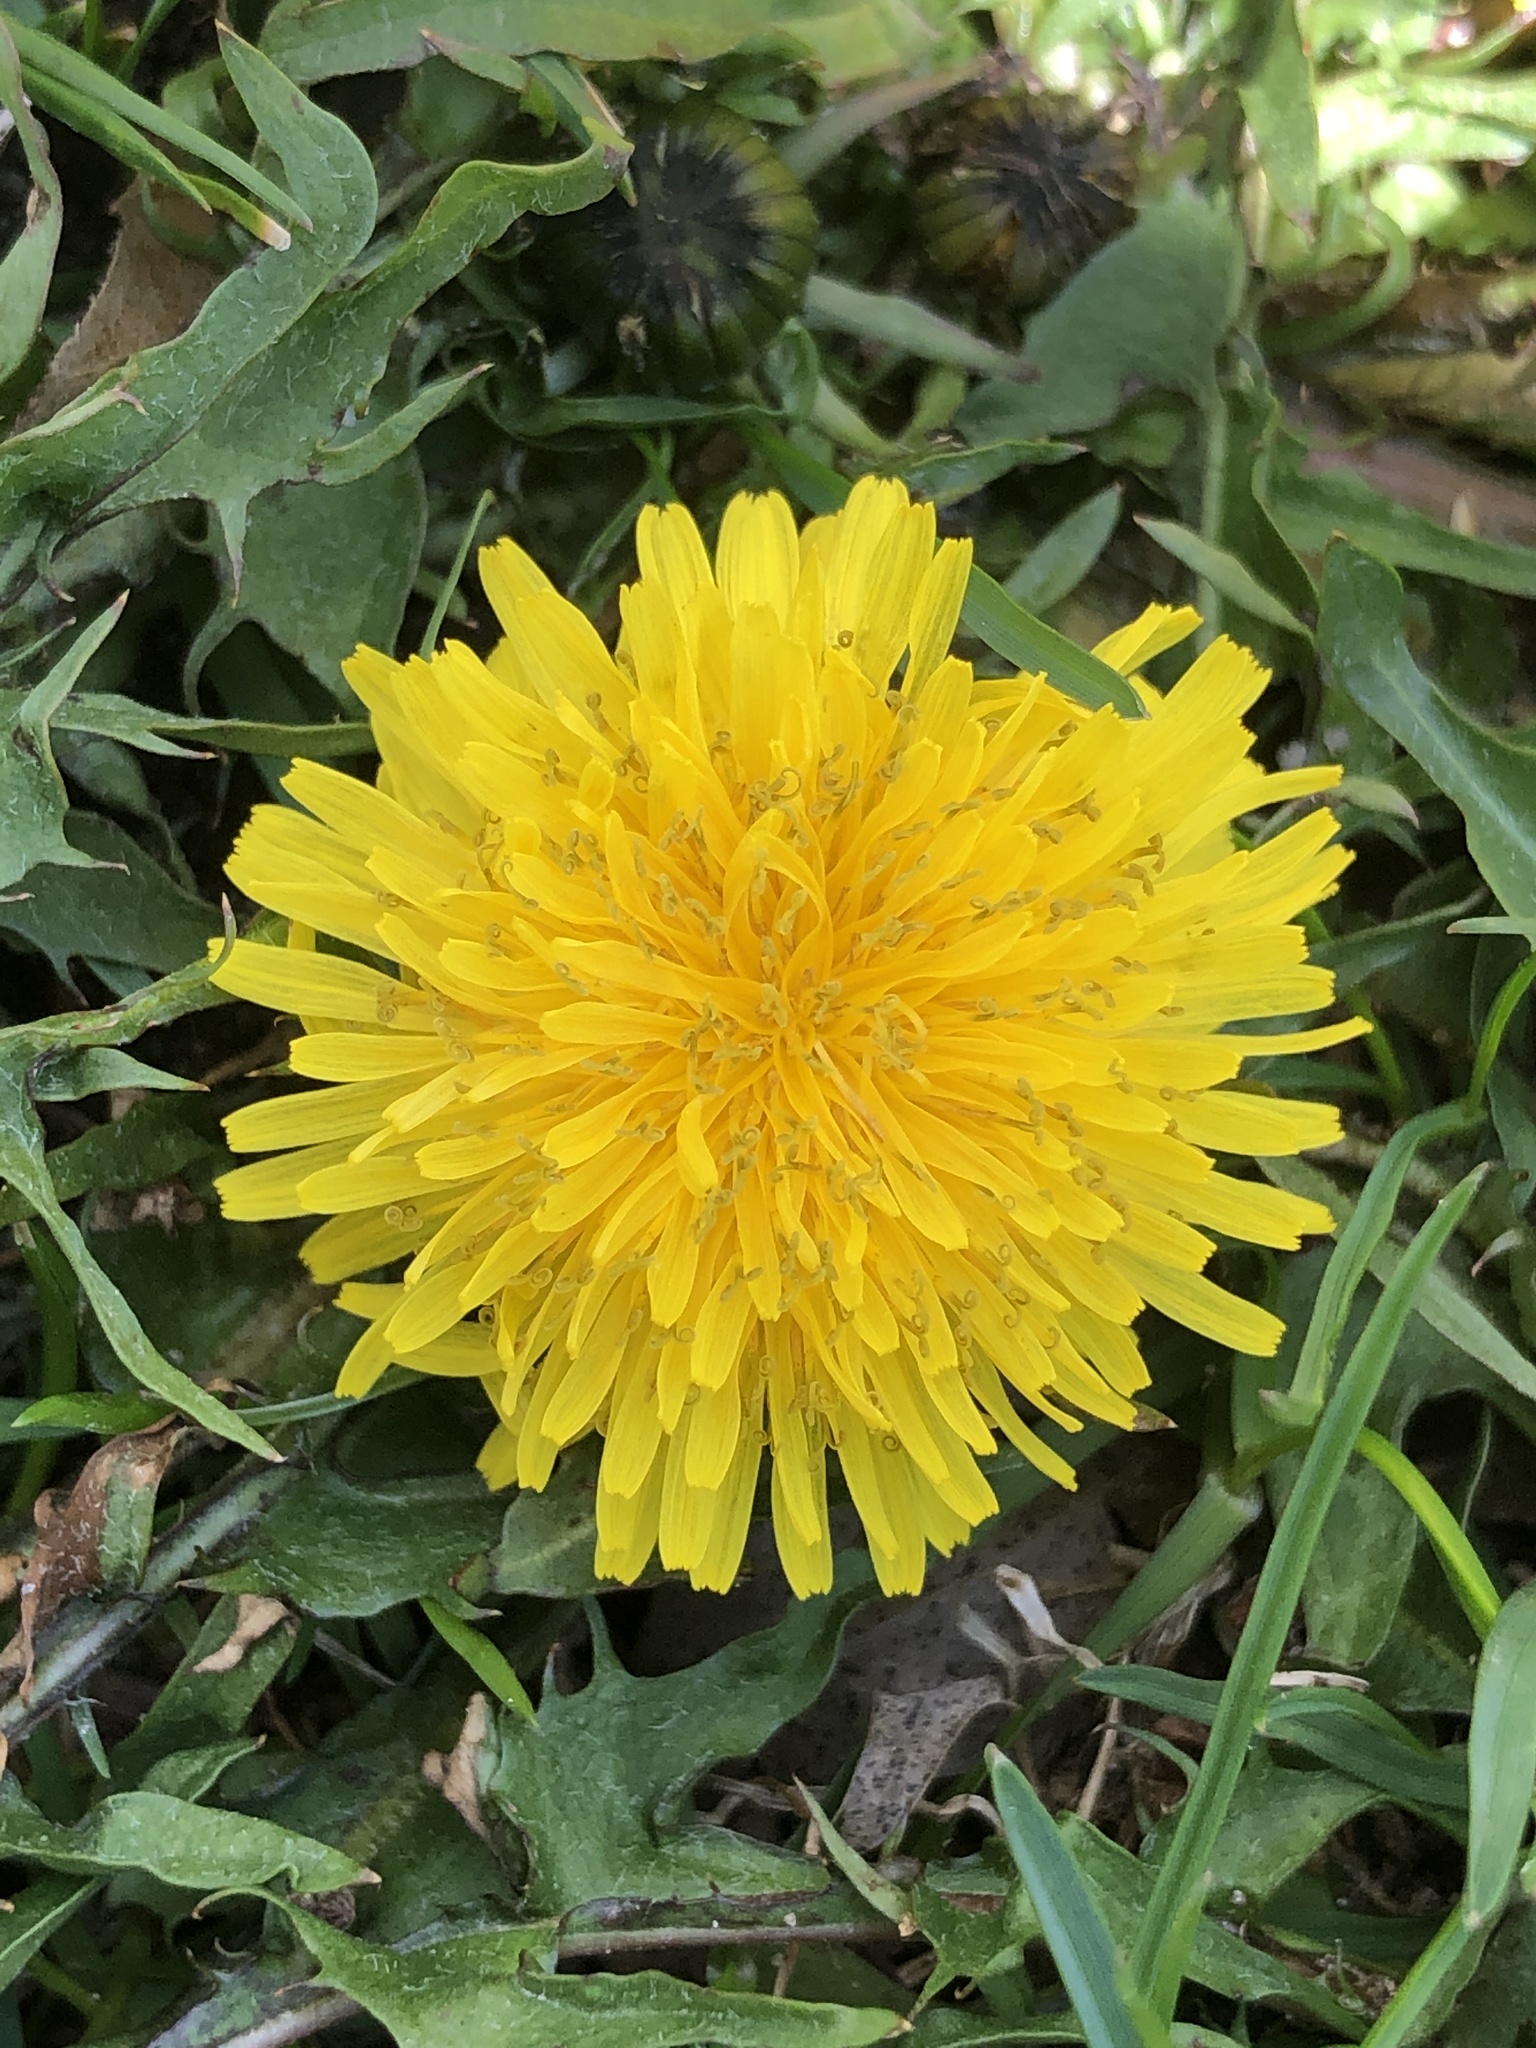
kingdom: Plantae
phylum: Tracheophyta
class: Magnoliopsida
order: Asterales
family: Asteraceae
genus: Taraxacum
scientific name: Taraxacum officinale
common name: Common dandelion
